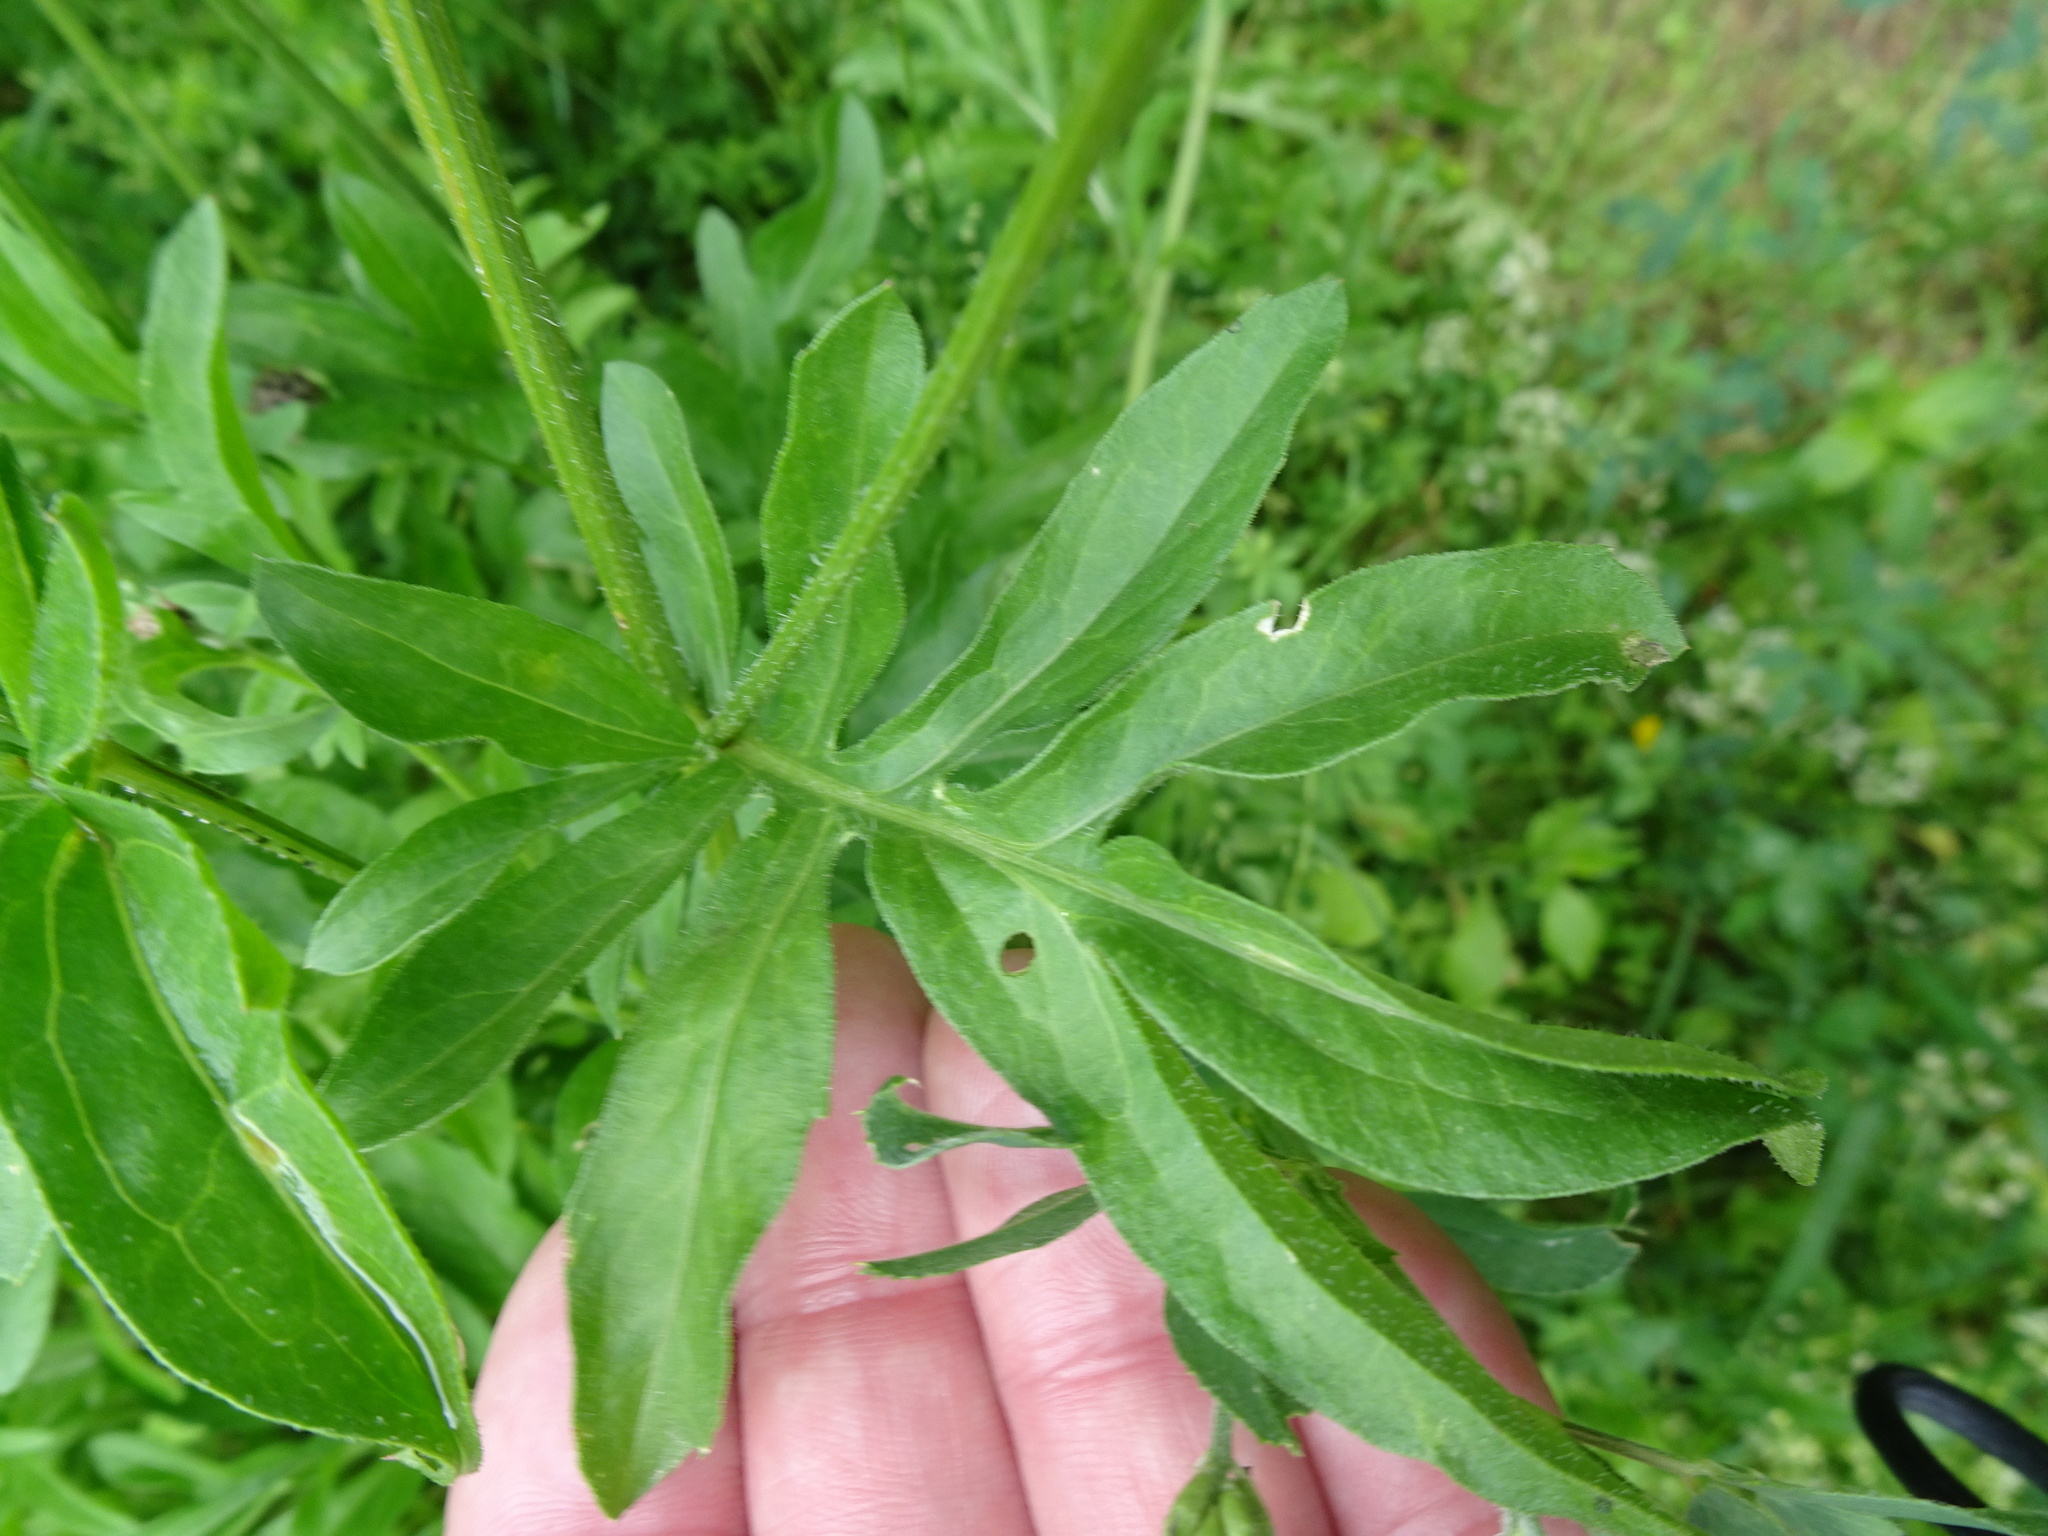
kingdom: Plantae
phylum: Tracheophyta
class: Magnoliopsida
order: Asterales
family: Asteraceae
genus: Centaurea
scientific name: Centaurea scabiosa
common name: Greater knapweed
